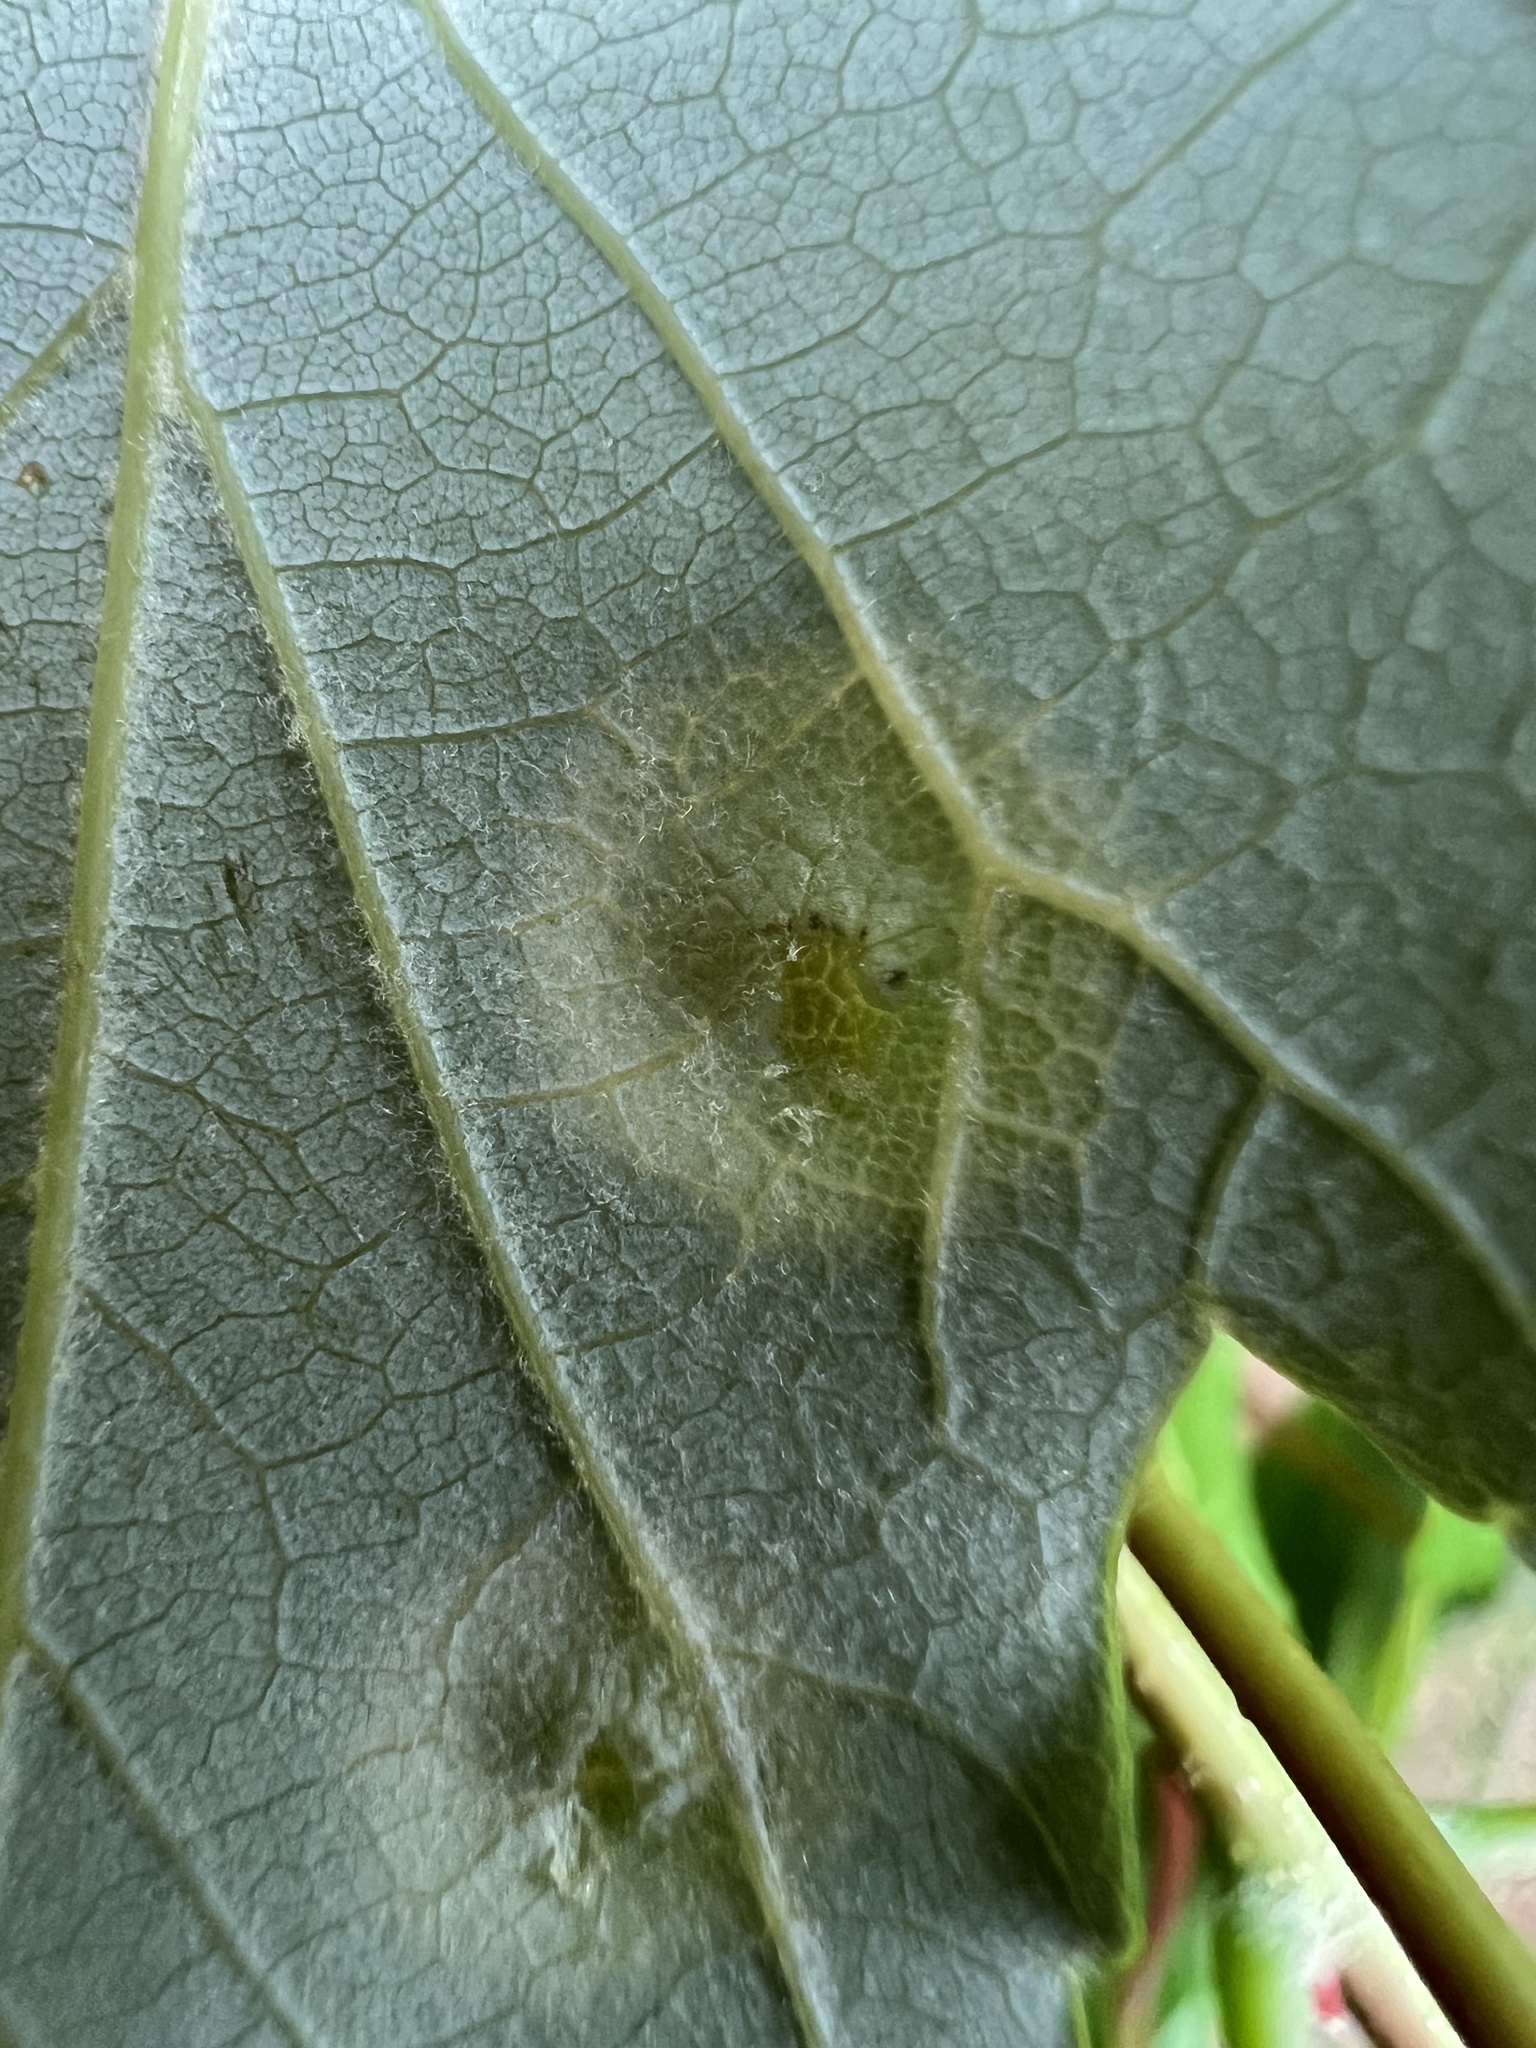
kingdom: Animalia
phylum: Arthropoda
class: Insecta
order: Diptera
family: Cecidomyiidae
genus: Acericecis
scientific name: Acericecis ocellaris
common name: Ocellate gall midge
